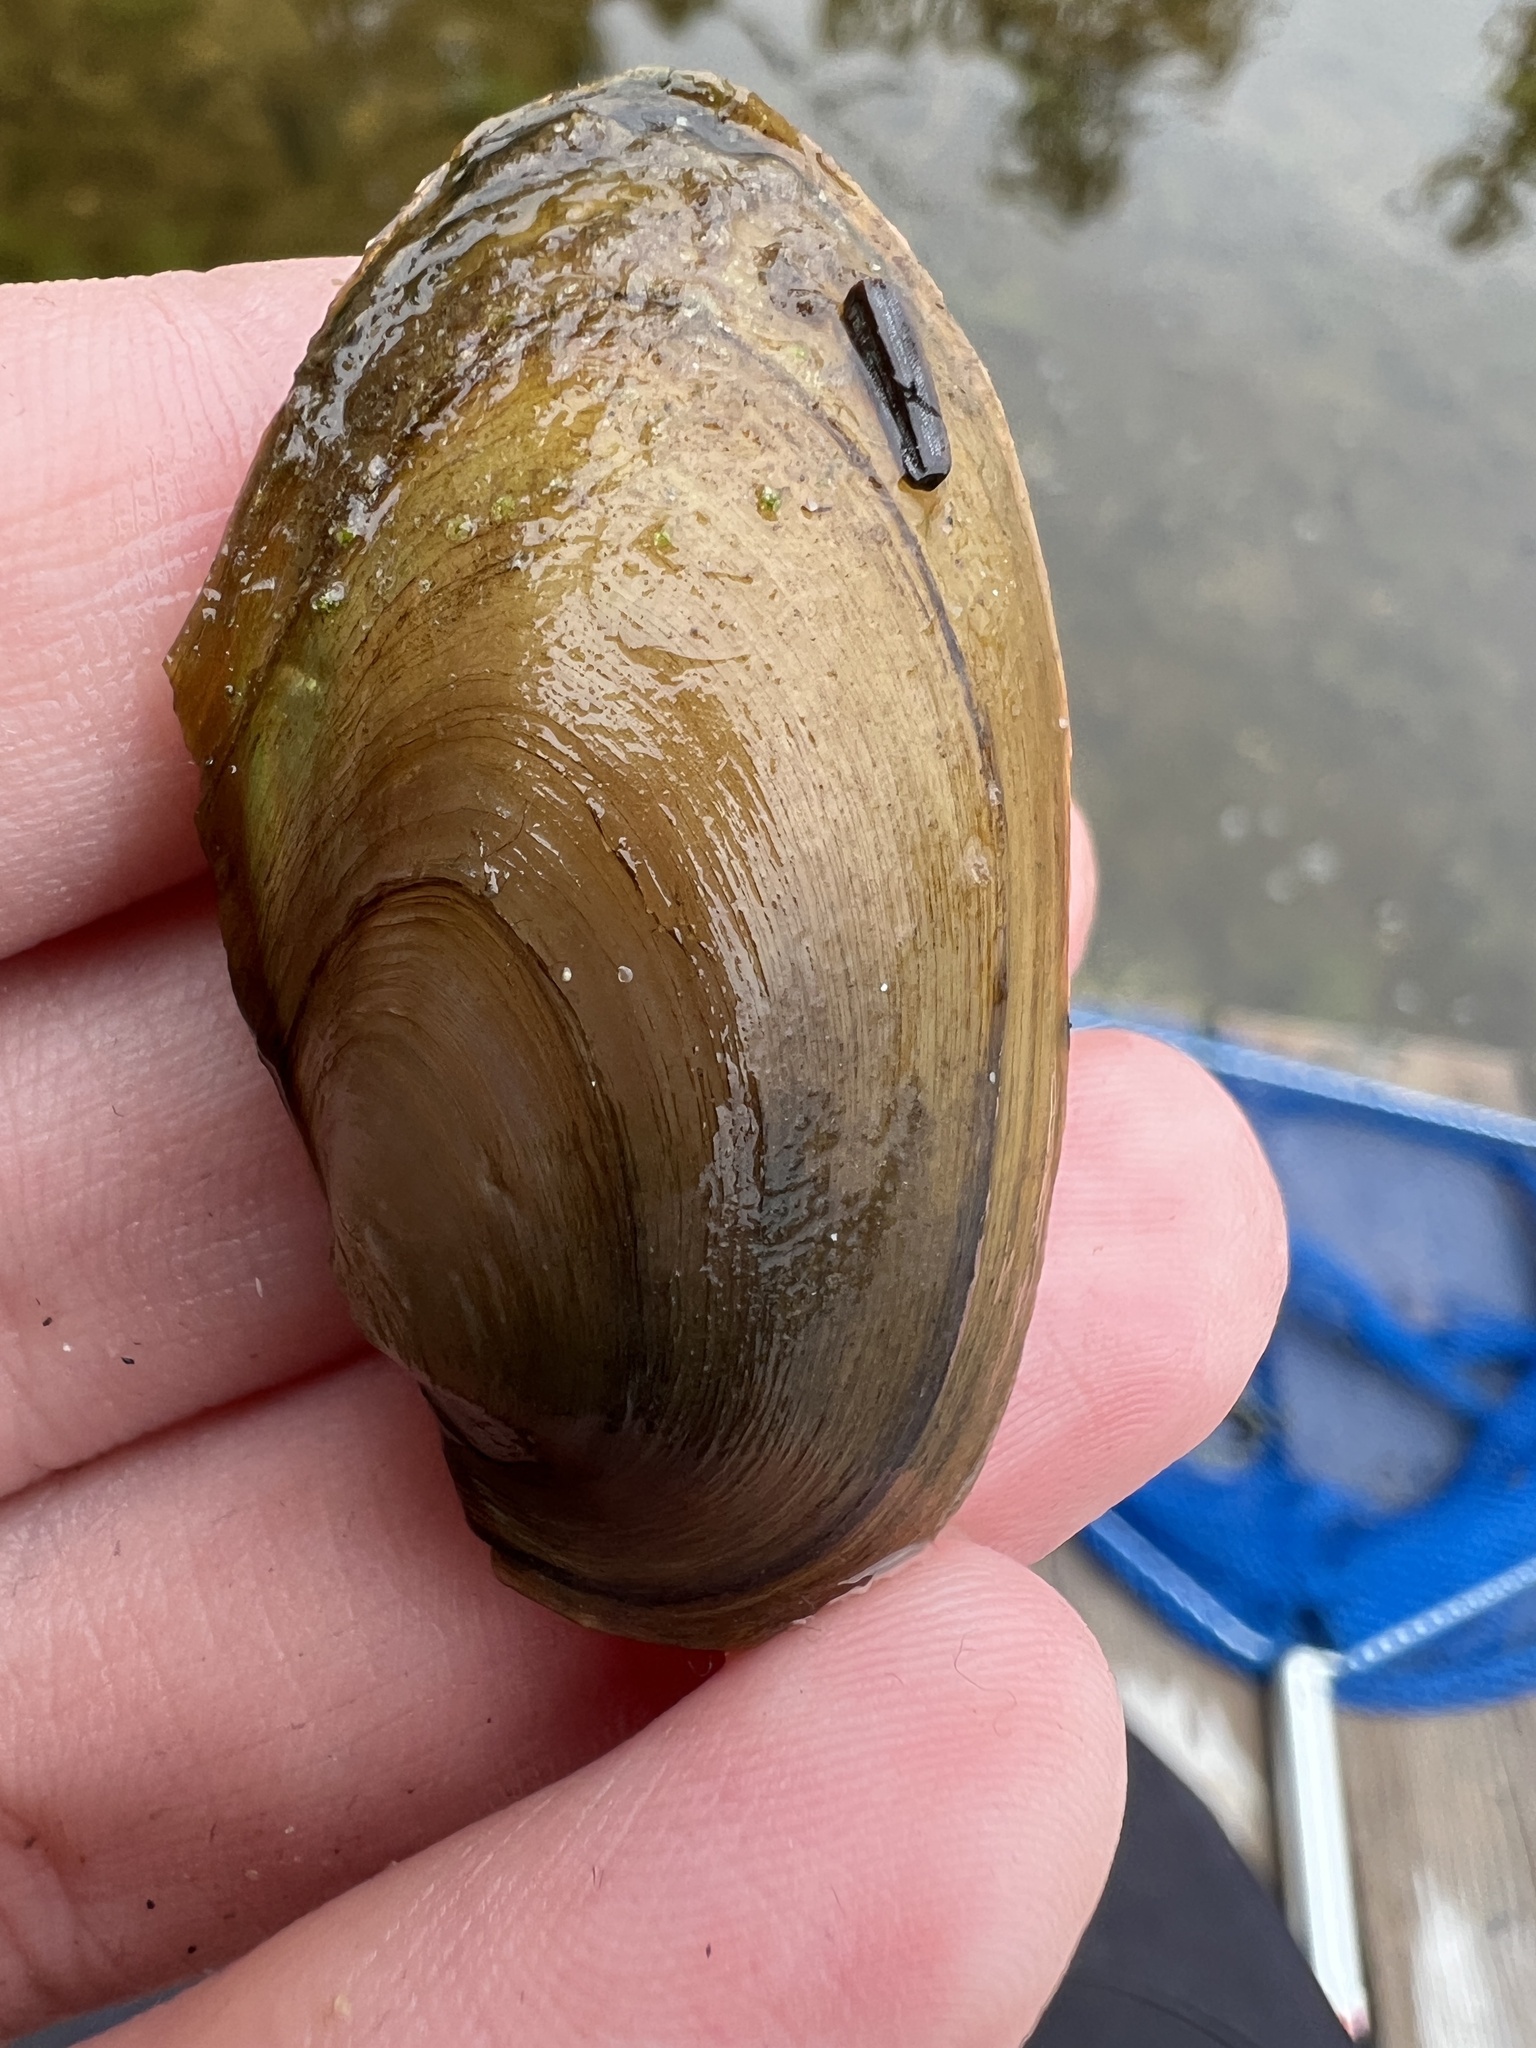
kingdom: Animalia
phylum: Mollusca
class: Bivalvia
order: Unionida
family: Unionidae
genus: Pyganodon
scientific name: Pyganodon grandis
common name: Giant floater
